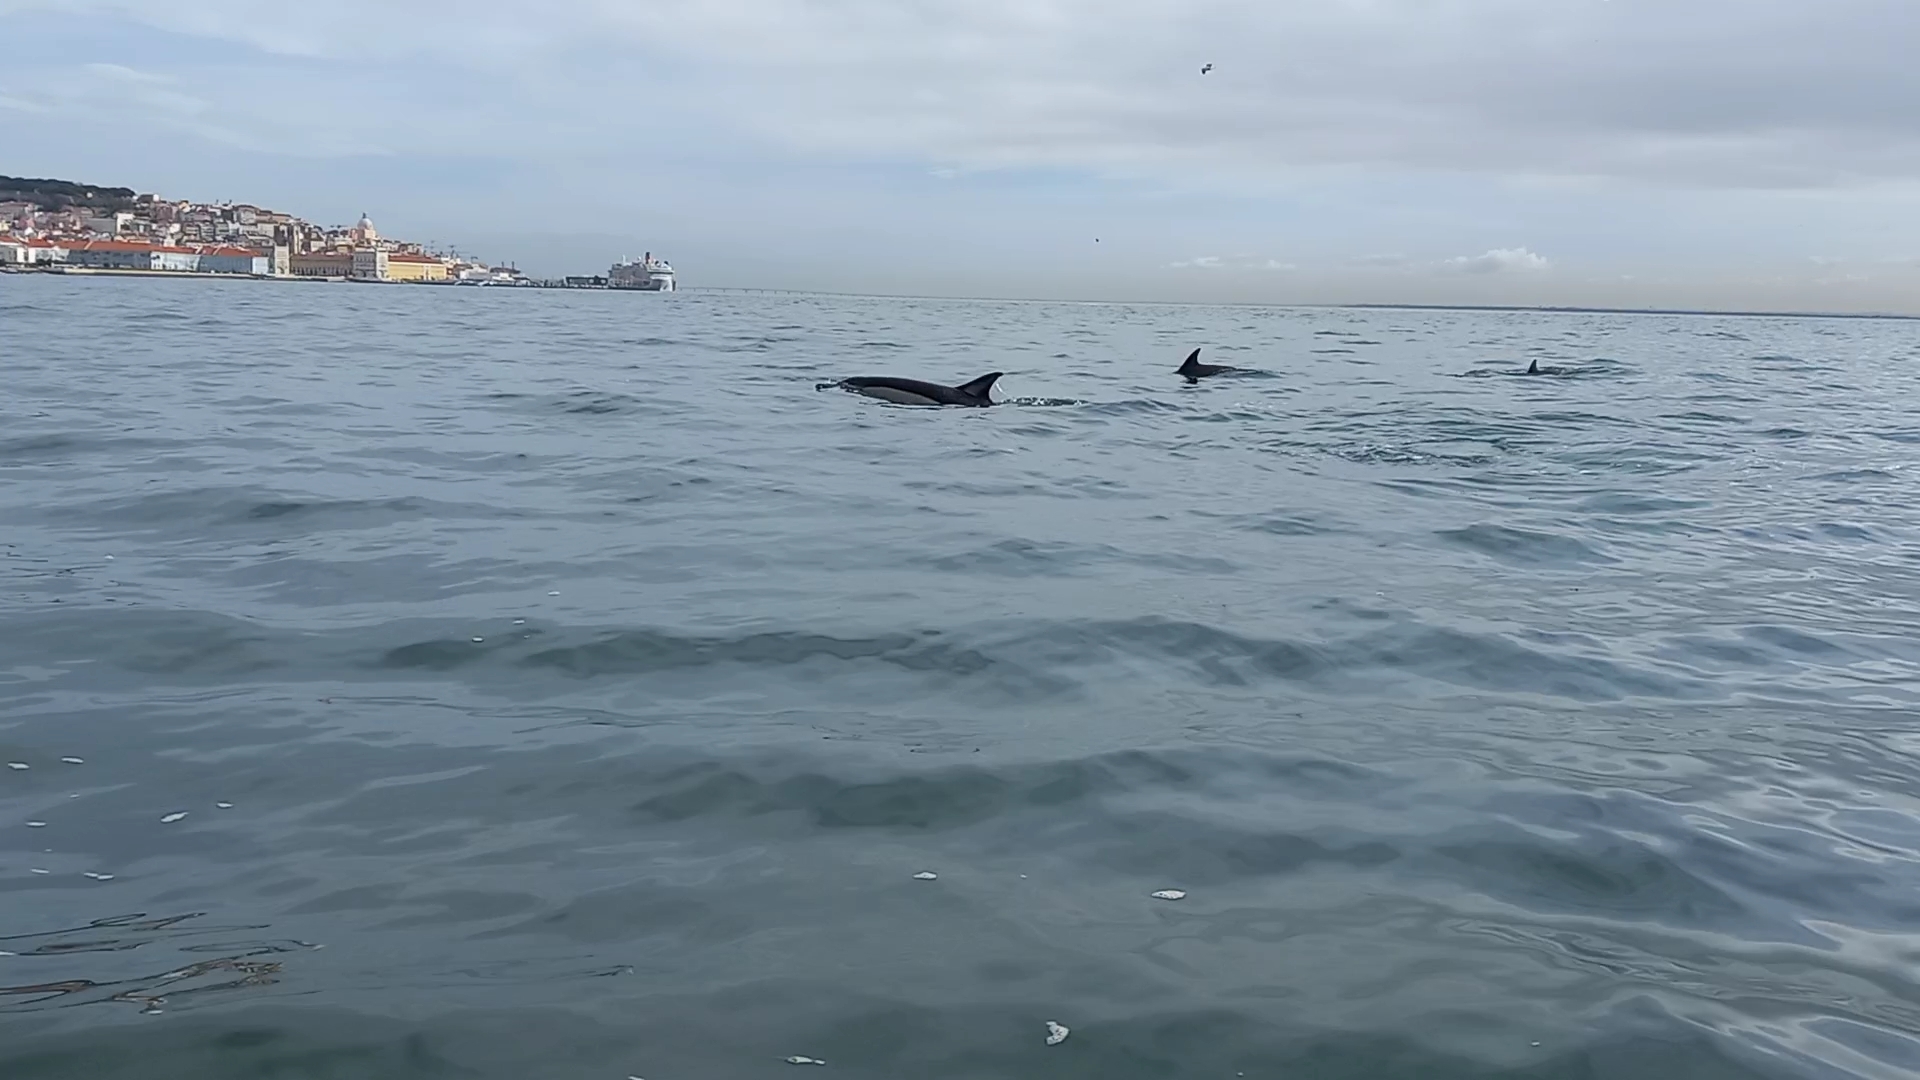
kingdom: Animalia
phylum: Chordata
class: Mammalia
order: Cetacea
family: Delphinidae
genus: Delphinus
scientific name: Delphinus delphis
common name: Common dolphin
